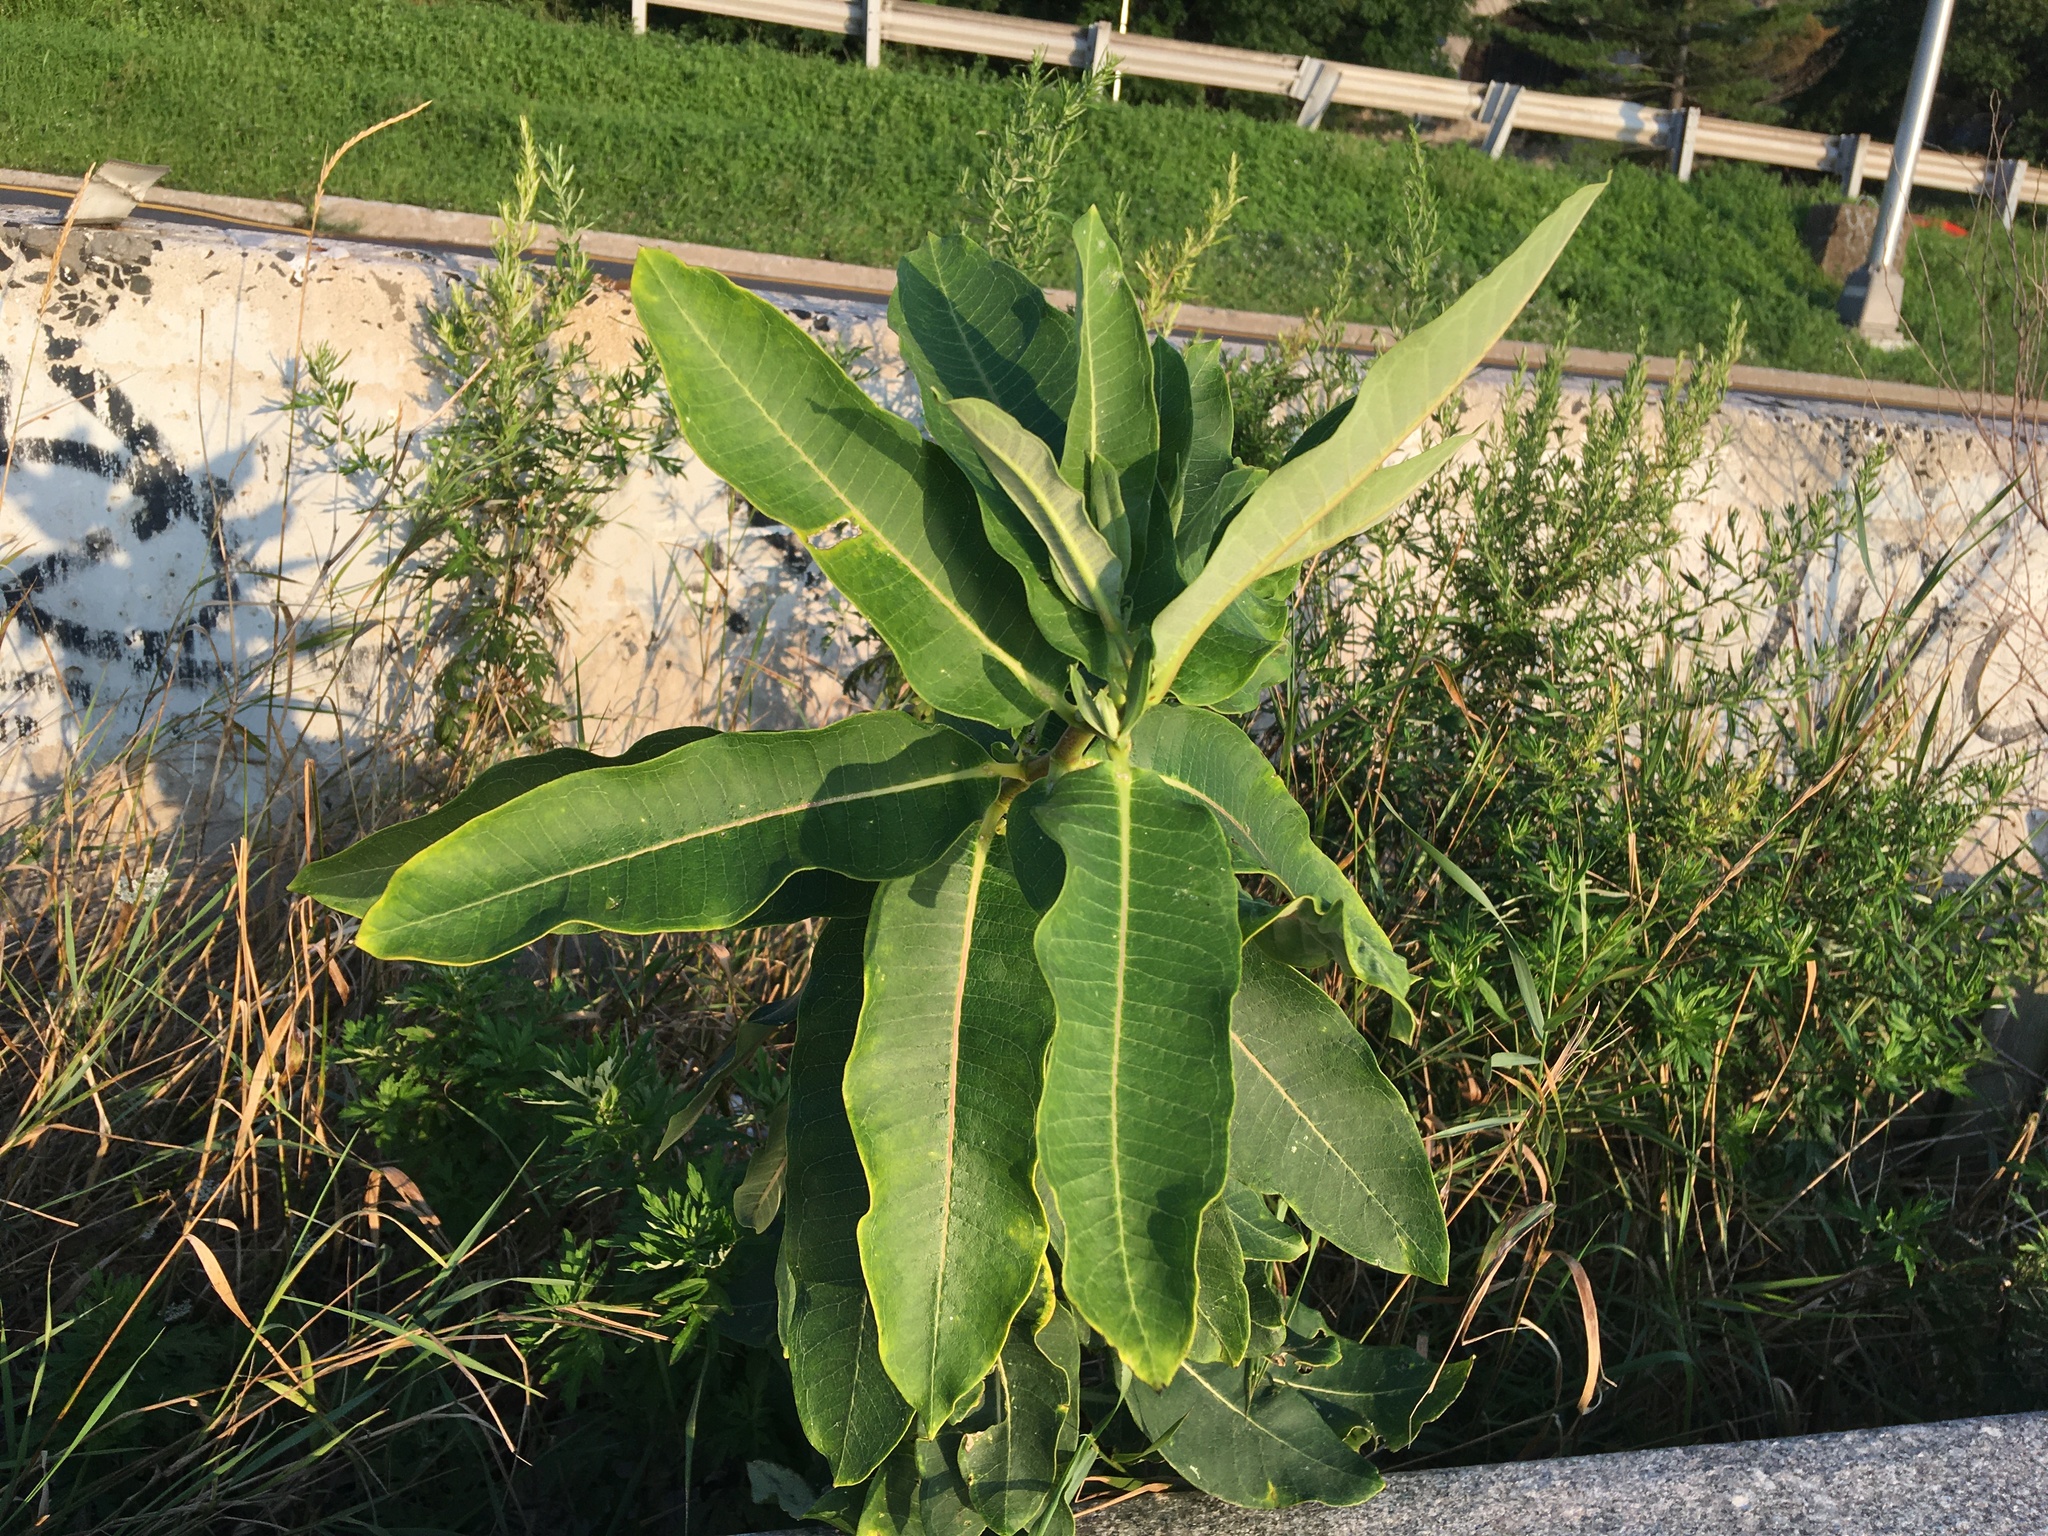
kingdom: Plantae
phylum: Tracheophyta
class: Magnoliopsida
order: Gentianales
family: Apocynaceae
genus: Asclepias
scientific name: Asclepias syriaca
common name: Common milkweed
